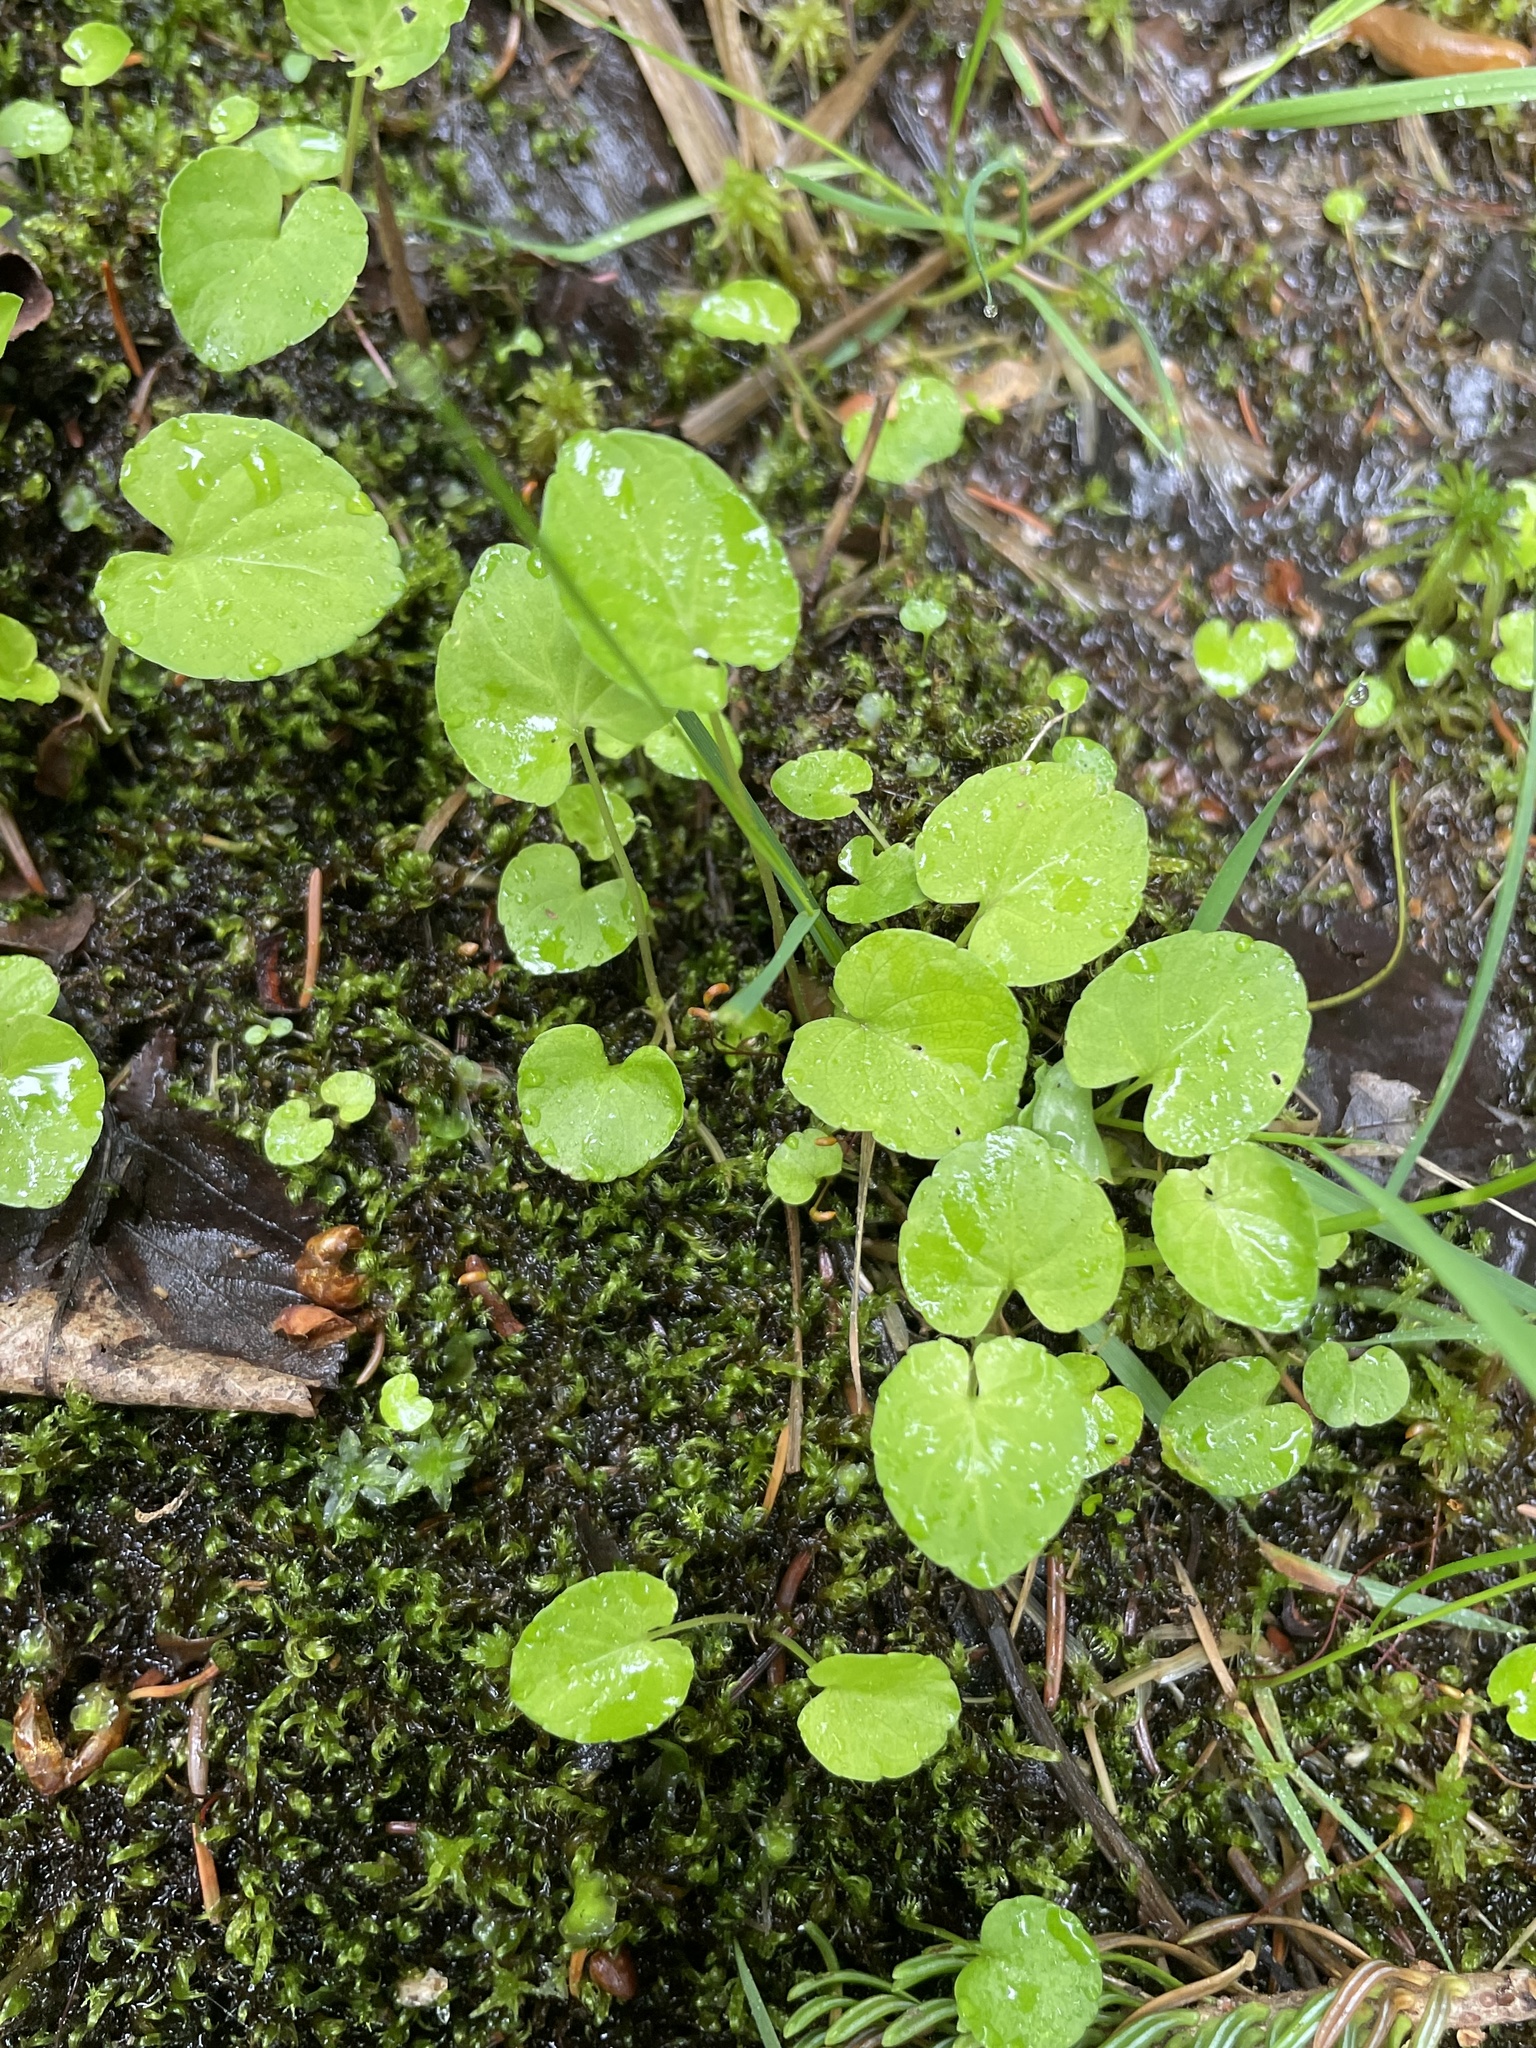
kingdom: Plantae
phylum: Tracheophyta
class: Magnoliopsida
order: Malpighiales
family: Violaceae
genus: Viola
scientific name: Viola minuscula
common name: Northern white violet
